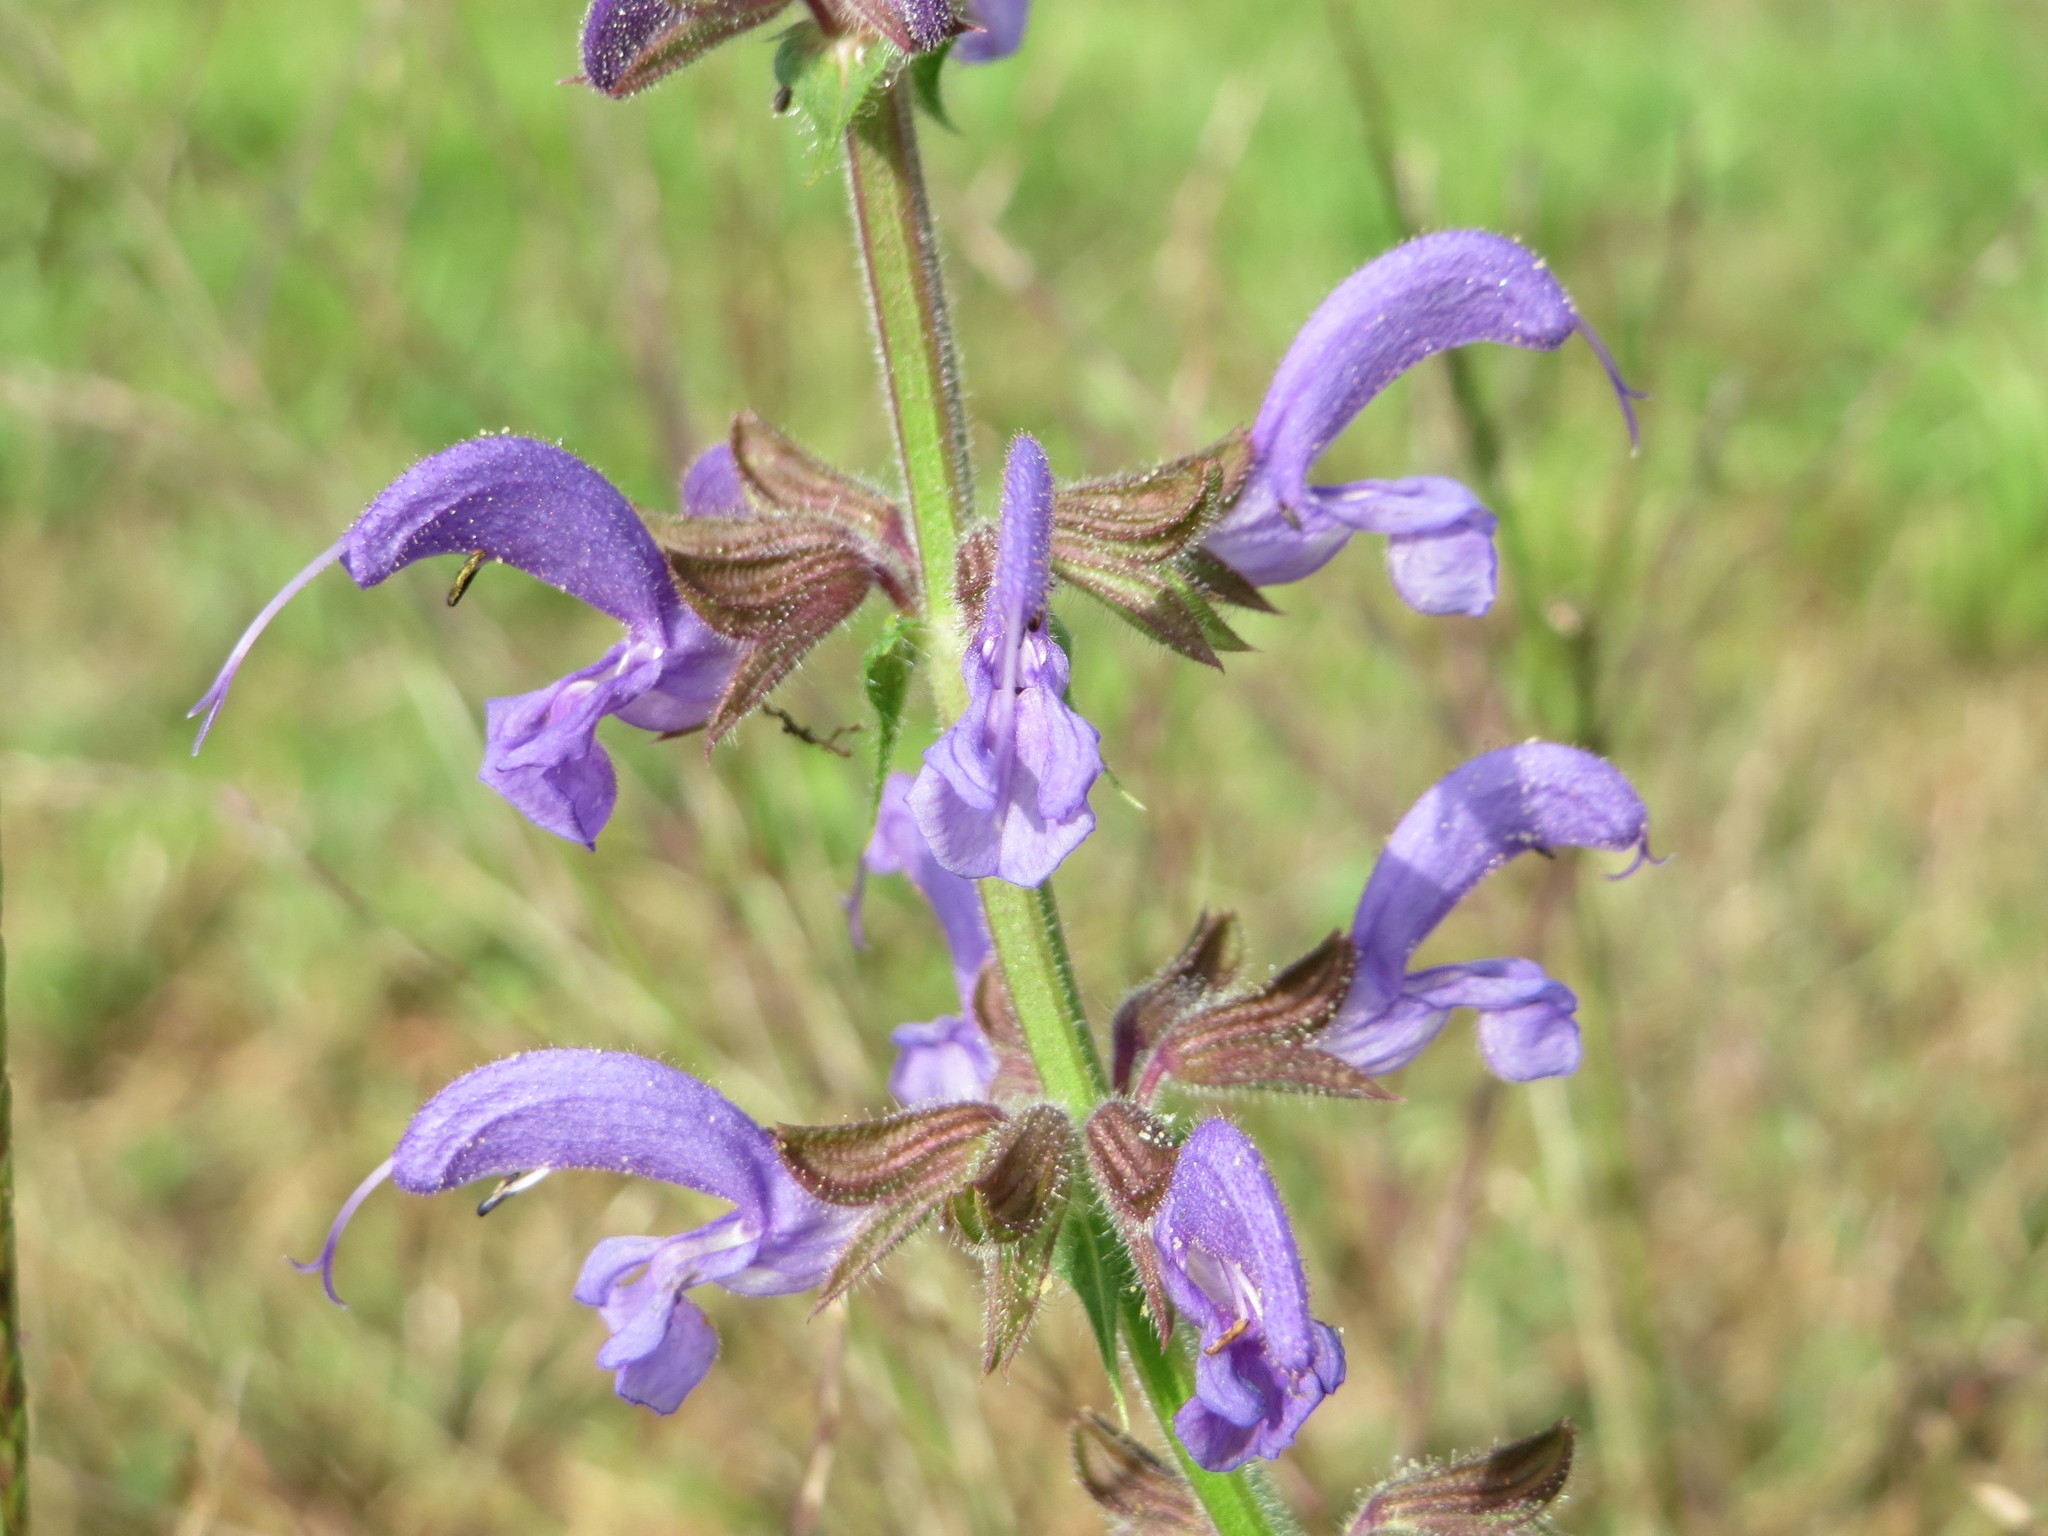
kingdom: Plantae
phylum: Tracheophyta
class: Magnoliopsida
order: Lamiales
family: Lamiaceae
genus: Salvia
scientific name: Salvia pratensis
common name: Meadow sage
